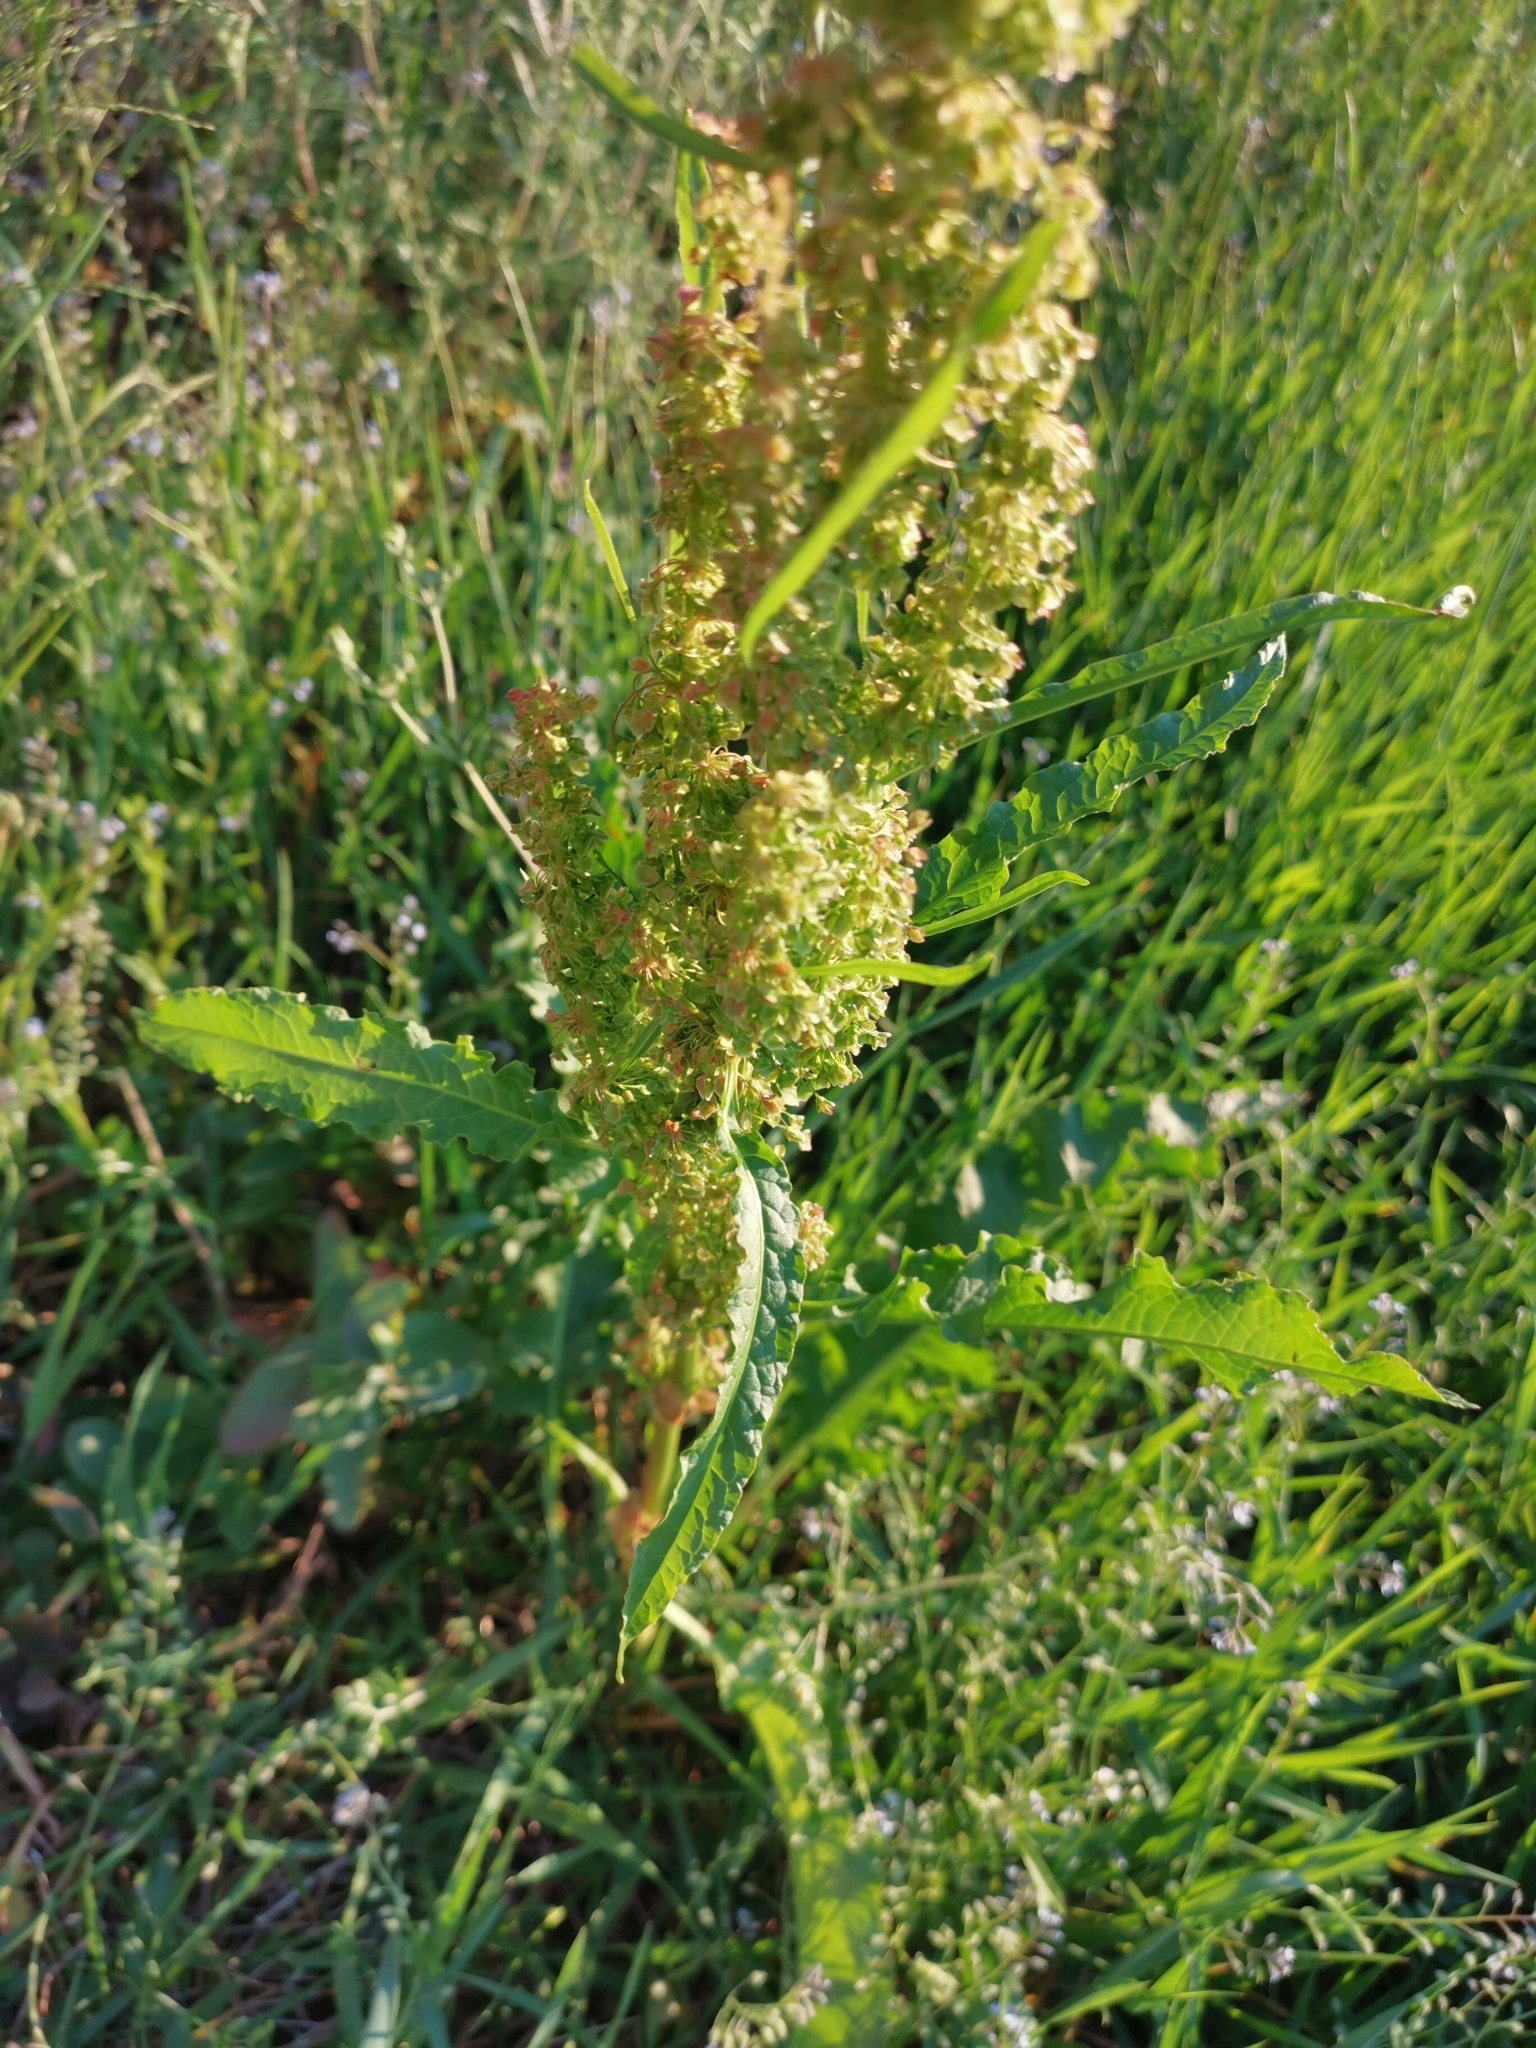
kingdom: Plantae
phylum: Tracheophyta
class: Magnoliopsida
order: Caryophyllales
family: Polygonaceae
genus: Rumex
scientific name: Rumex longifolius
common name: Dooryard dock
